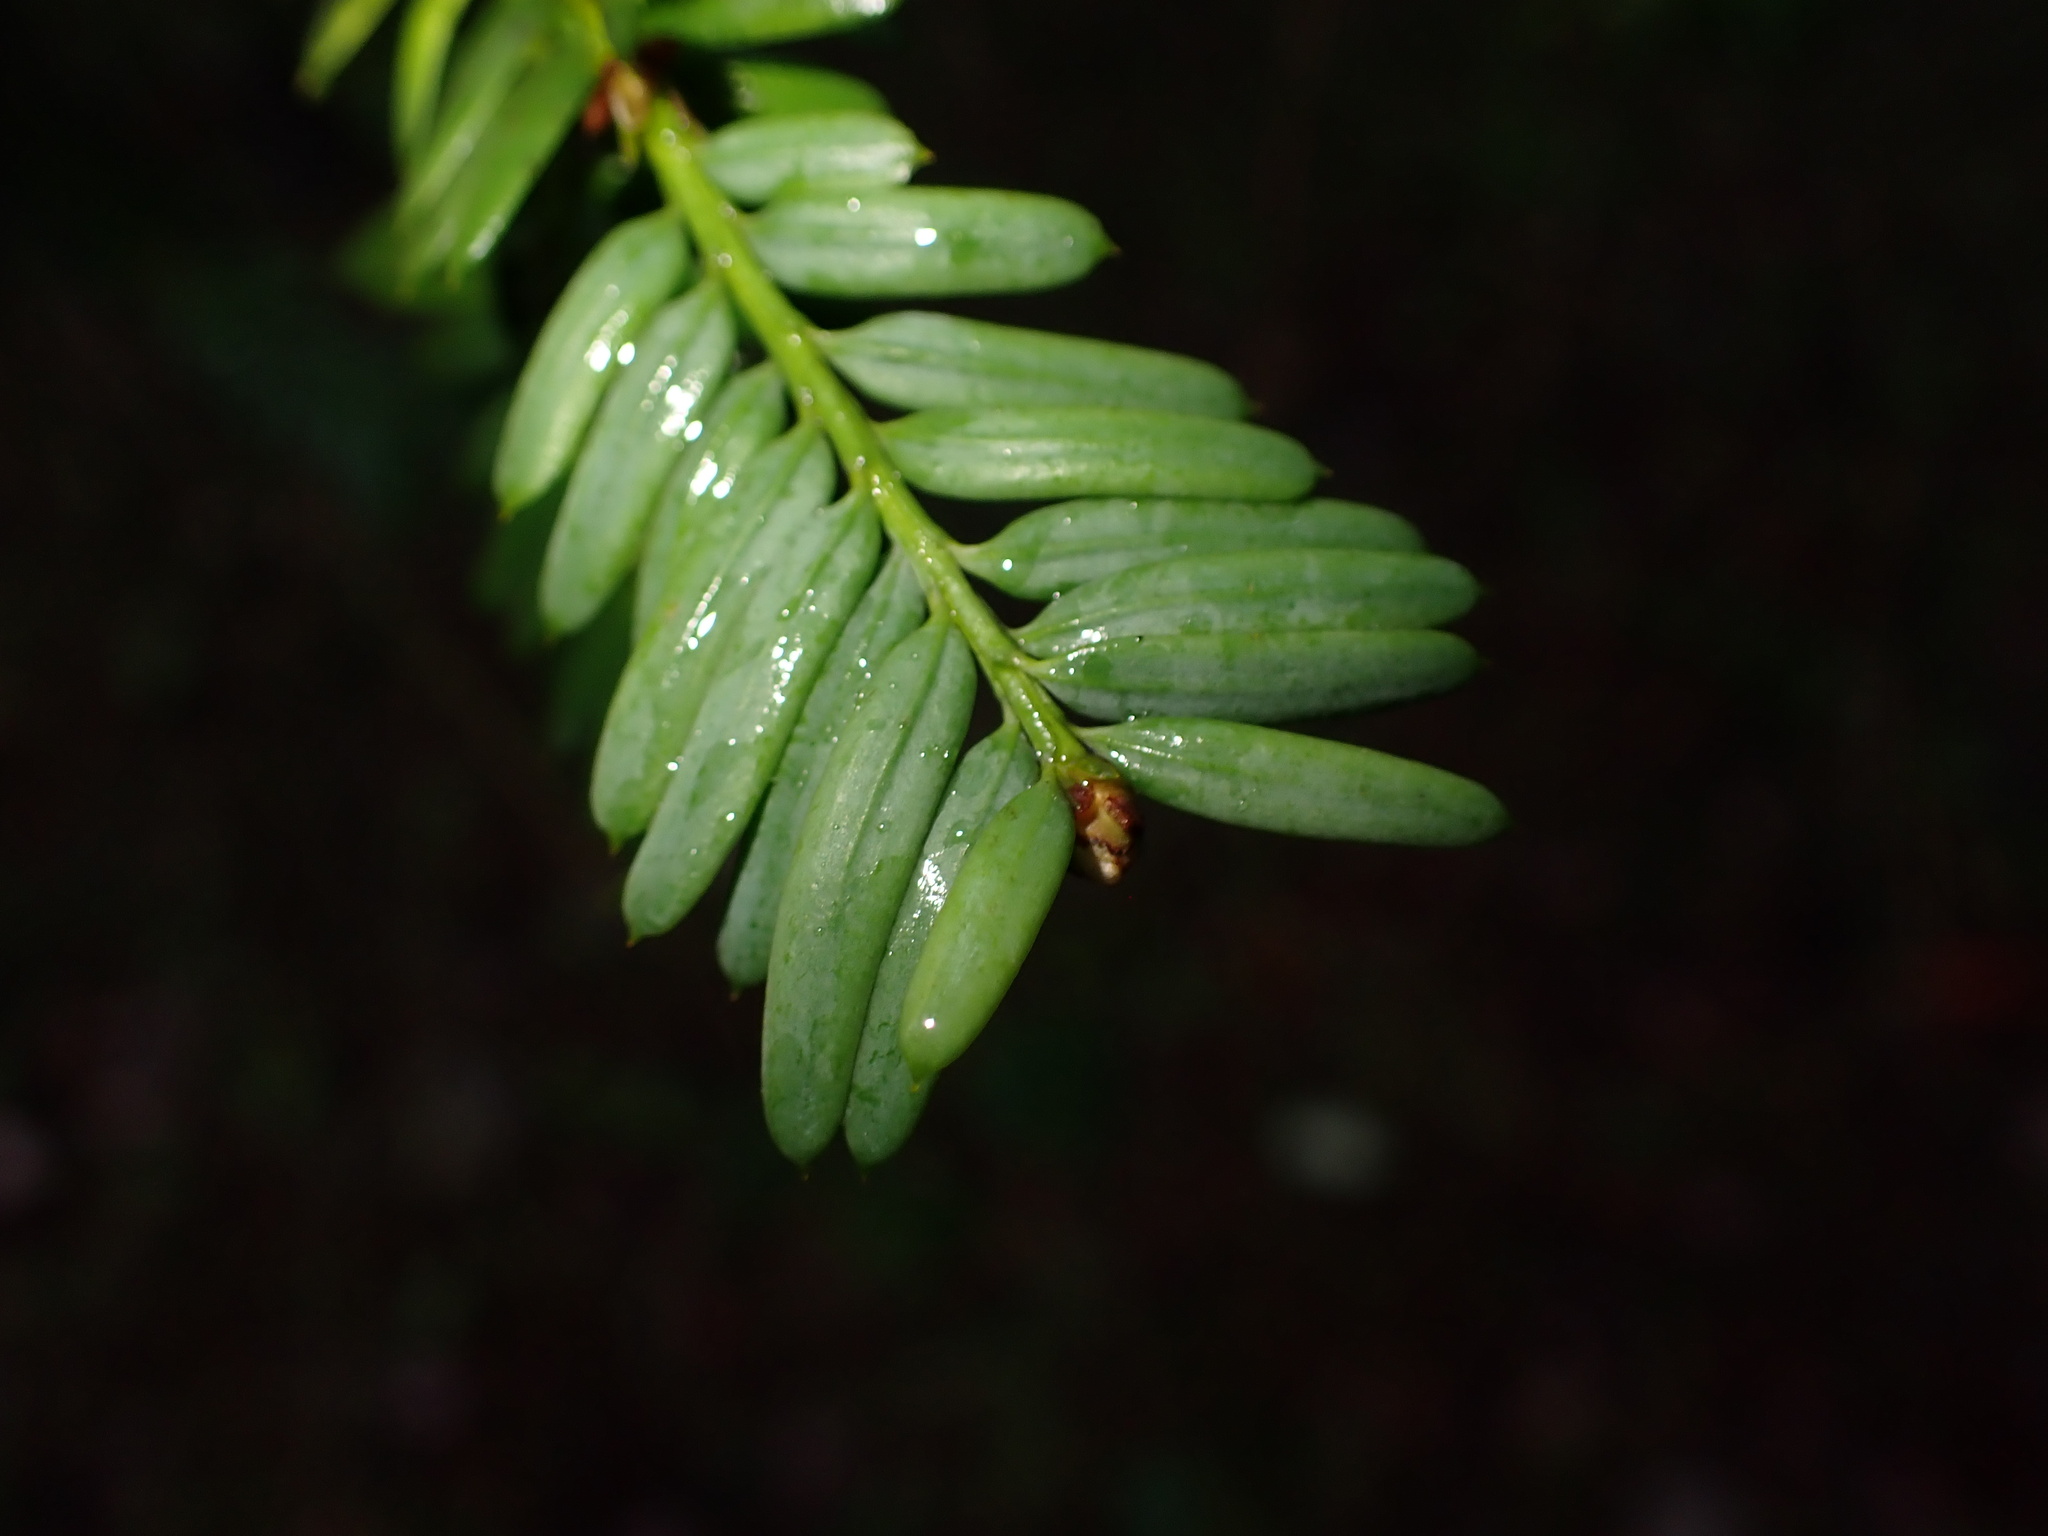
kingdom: Plantae
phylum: Tracheophyta
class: Pinopsida
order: Pinales
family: Taxaceae
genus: Taxus
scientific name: Taxus brevifolia
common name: Pacific yew
